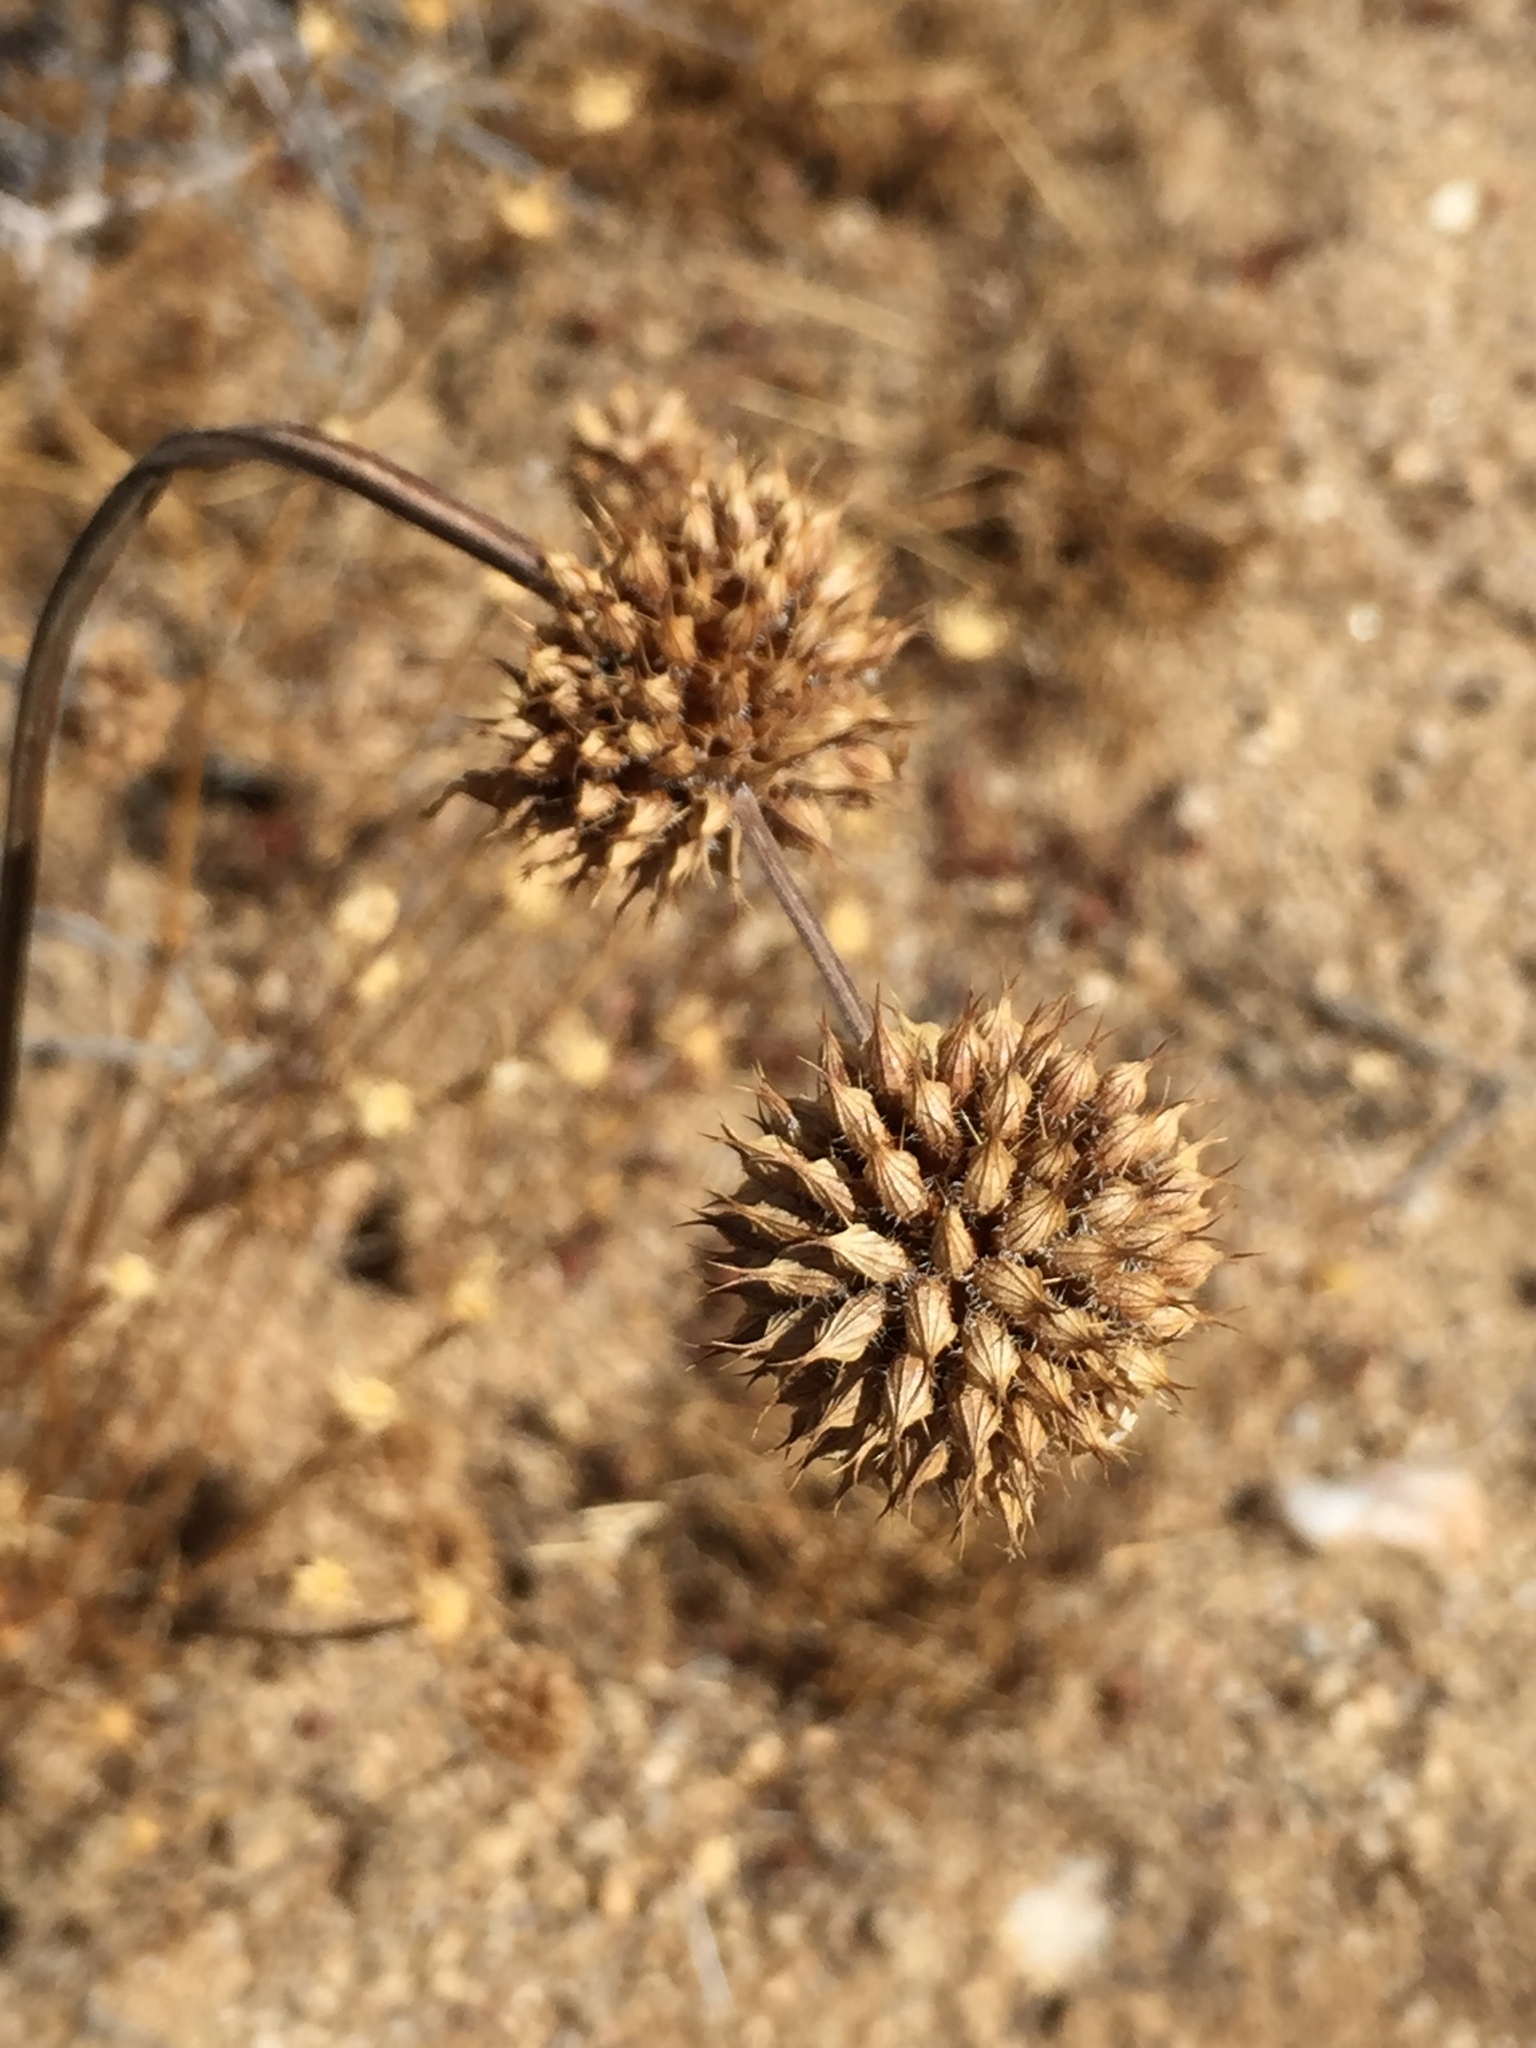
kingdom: Plantae
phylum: Tracheophyta
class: Magnoliopsida
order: Lamiales
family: Lamiaceae
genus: Salvia
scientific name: Salvia columbariae
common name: Chia
